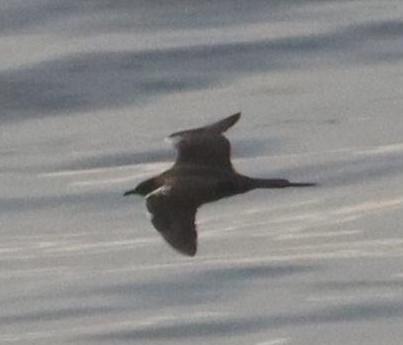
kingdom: Animalia
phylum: Chordata
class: Aves
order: Charadriiformes
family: Stercorariidae
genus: Stercorarius
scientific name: Stercorarius parasiticus
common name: Parasitic jaeger
